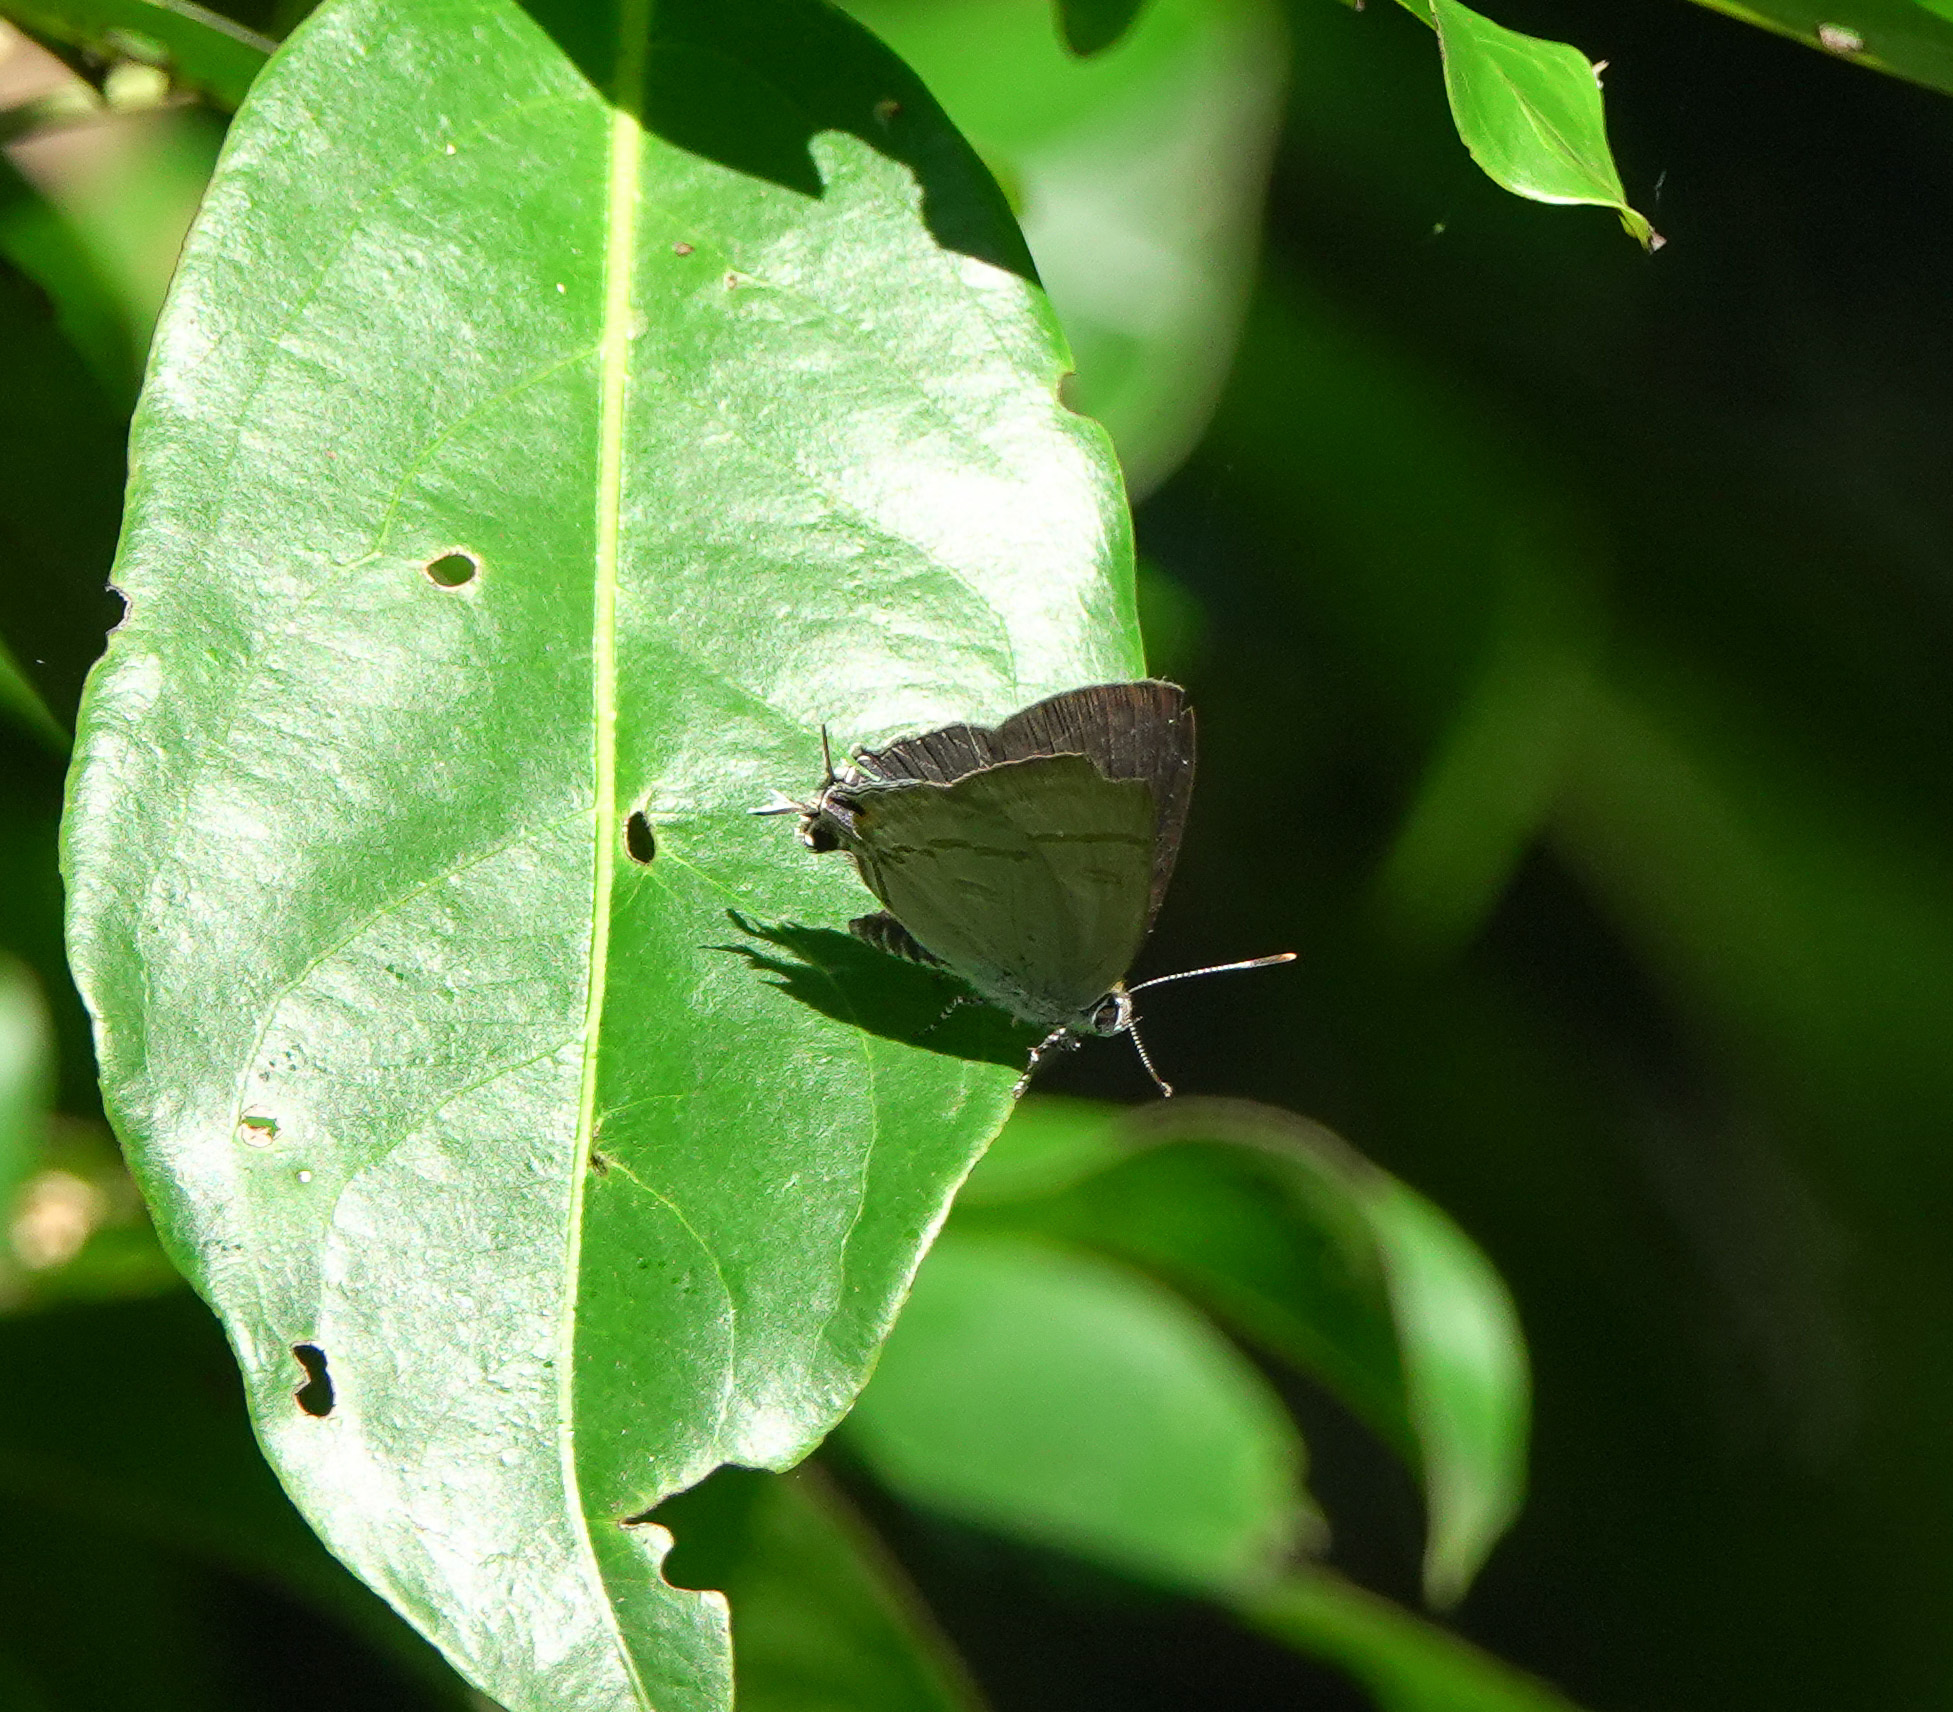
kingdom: Animalia
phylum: Arthropoda
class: Insecta
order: Lepidoptera
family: Lycaenidae
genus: Hypolycaena
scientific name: Hypolycaena erylus
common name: Common tit
